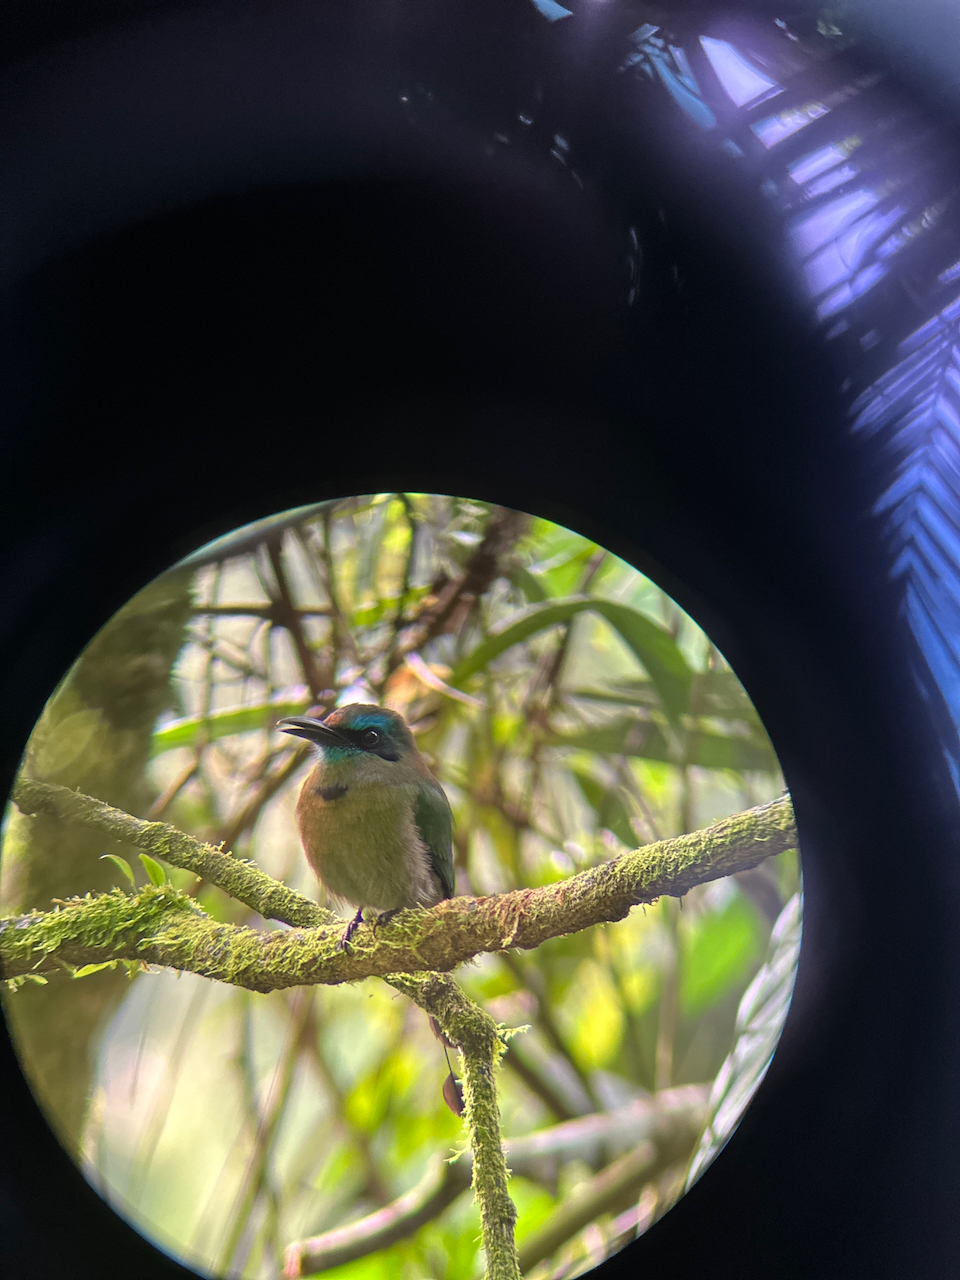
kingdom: Animalia
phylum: Chordata
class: Aves
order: Coraciiformes
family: Momotidae
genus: Electron
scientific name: Electron carinatum
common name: Keel-billed motmot
